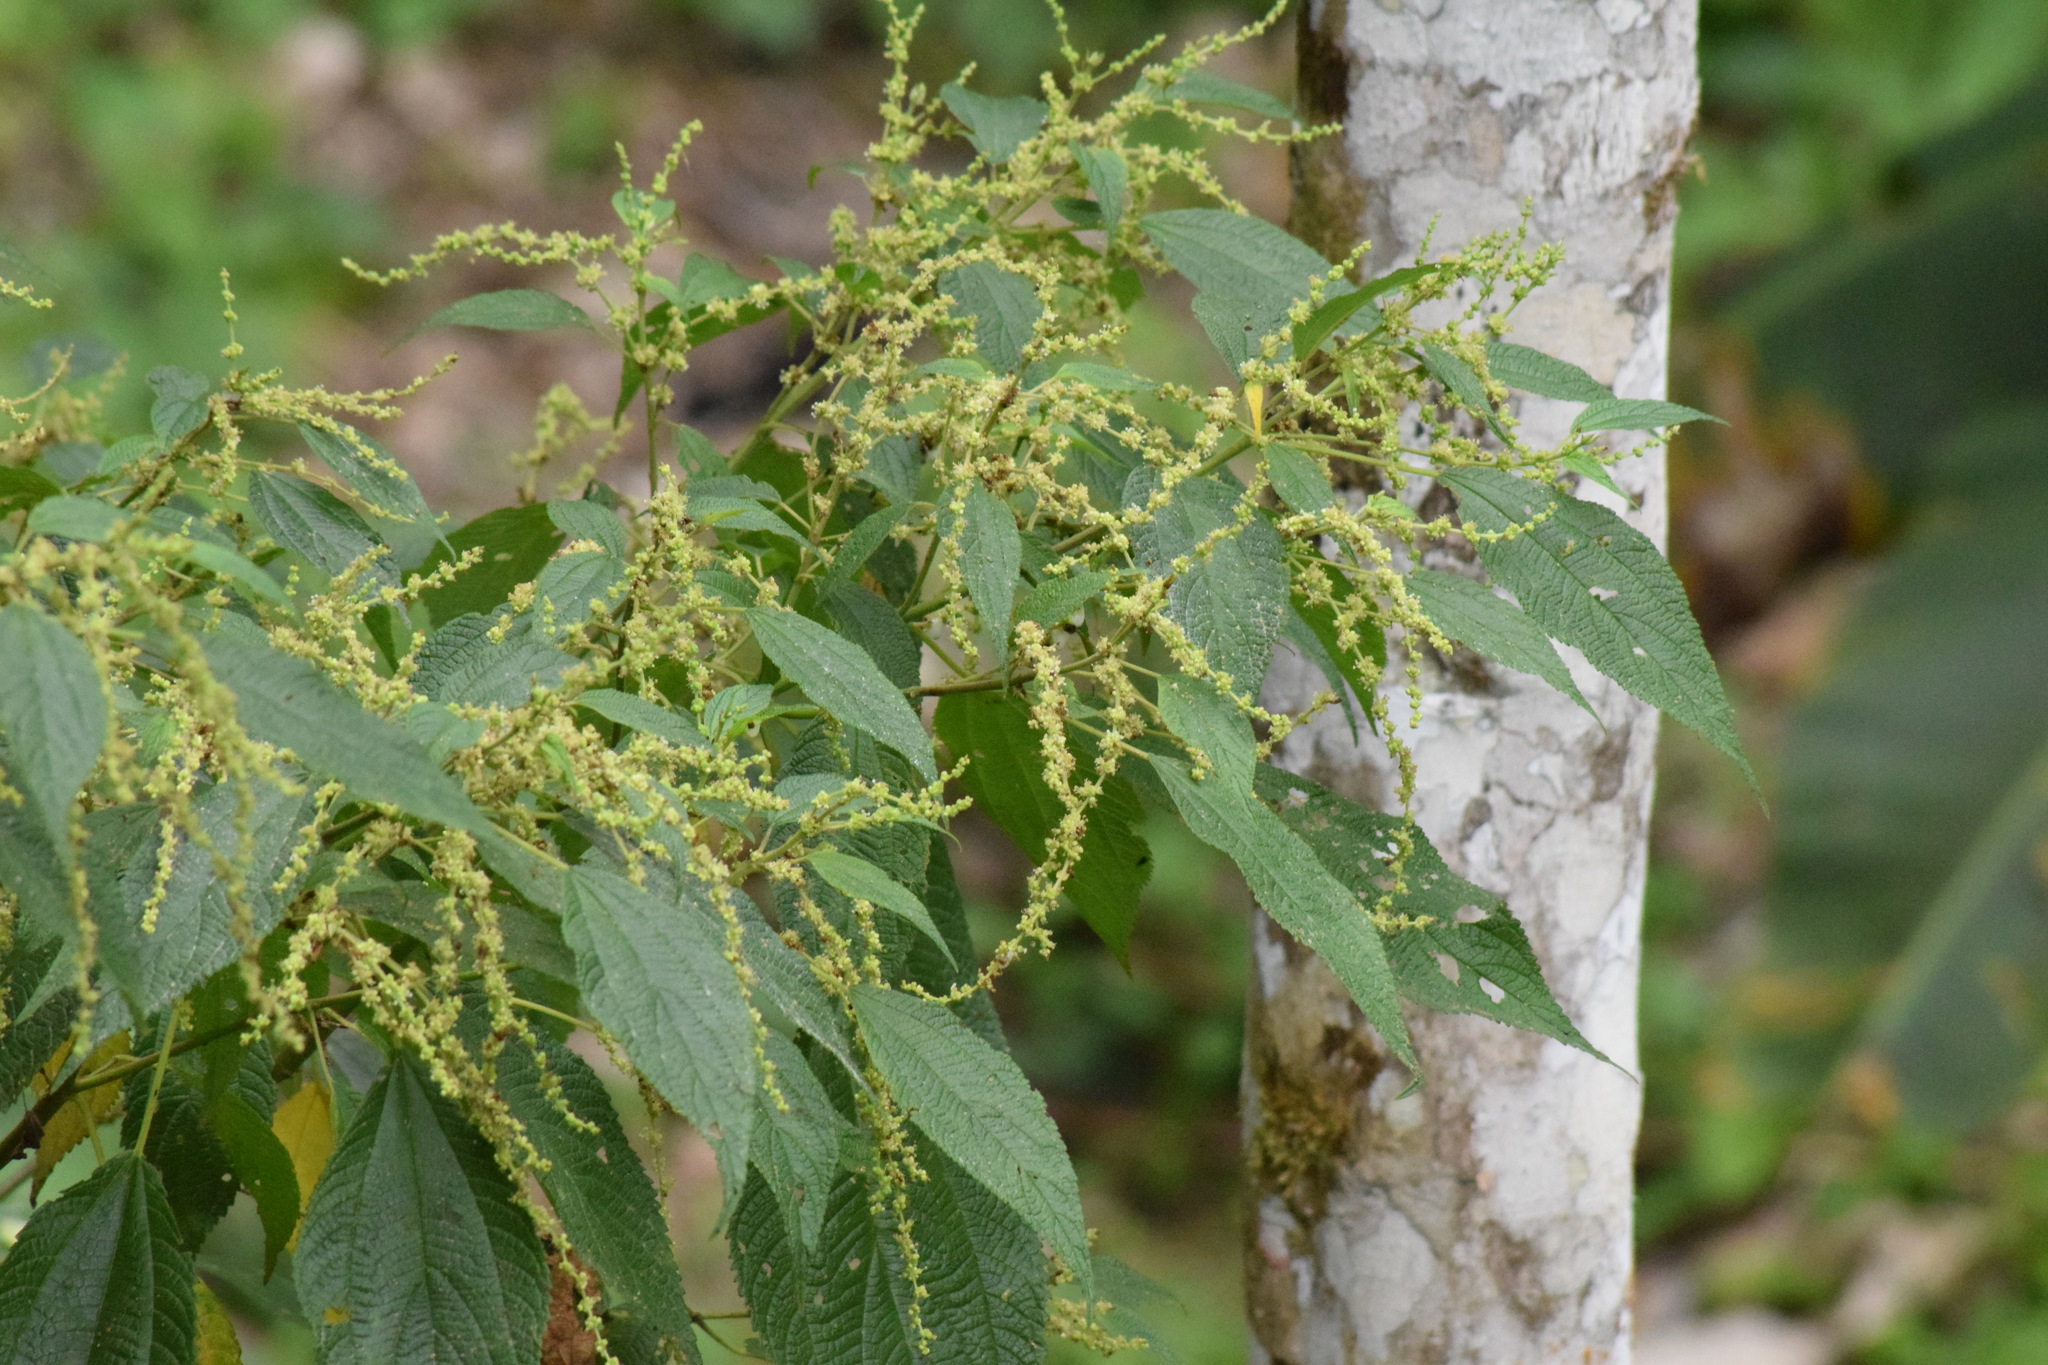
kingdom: Plantae
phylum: Tracheophyta
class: Magnoliopsida
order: Rosales
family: Urticaceae
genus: Boehmeria
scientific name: Boehmeria caudata
